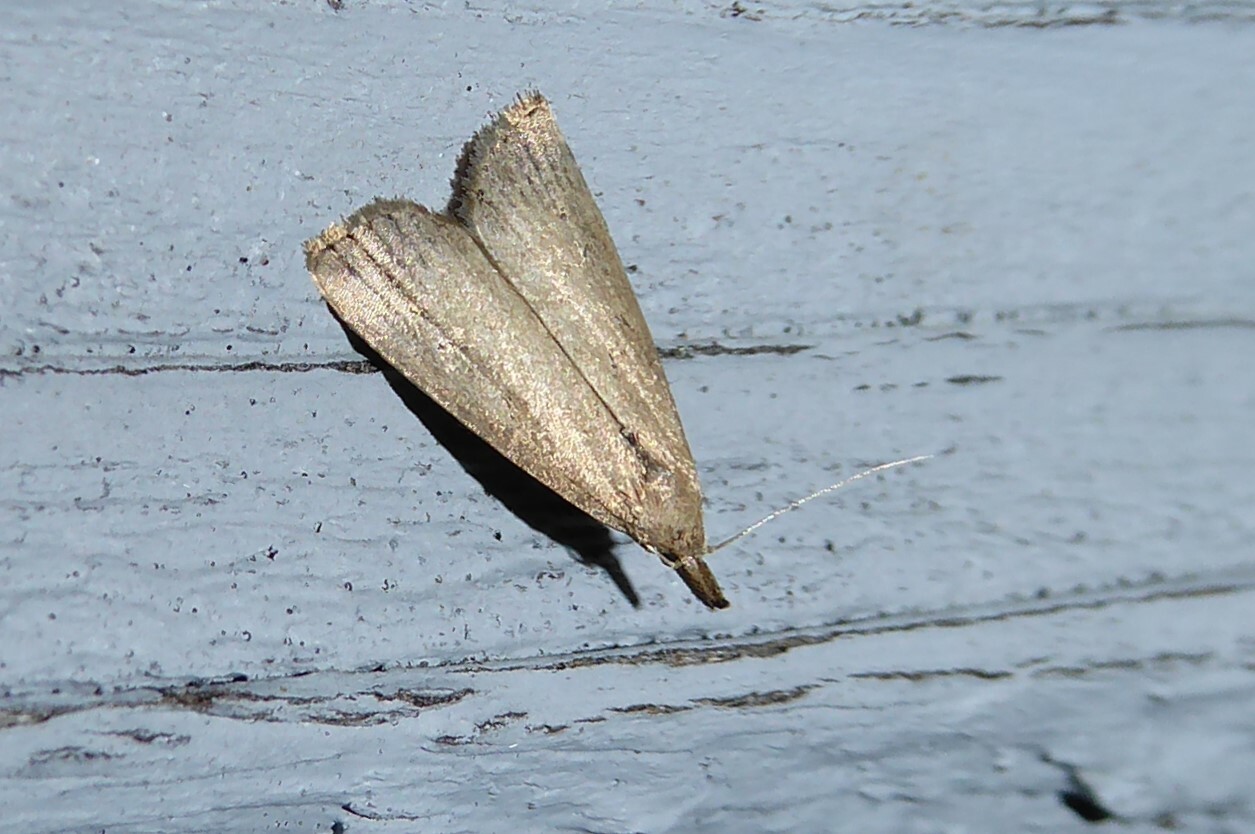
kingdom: Animalia
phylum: Arthropoda
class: Insecta
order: Lepidoptera
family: Erebidae
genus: Schrankia
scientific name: Schrankia costaestrigalis
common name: Pinion-streaked snout
